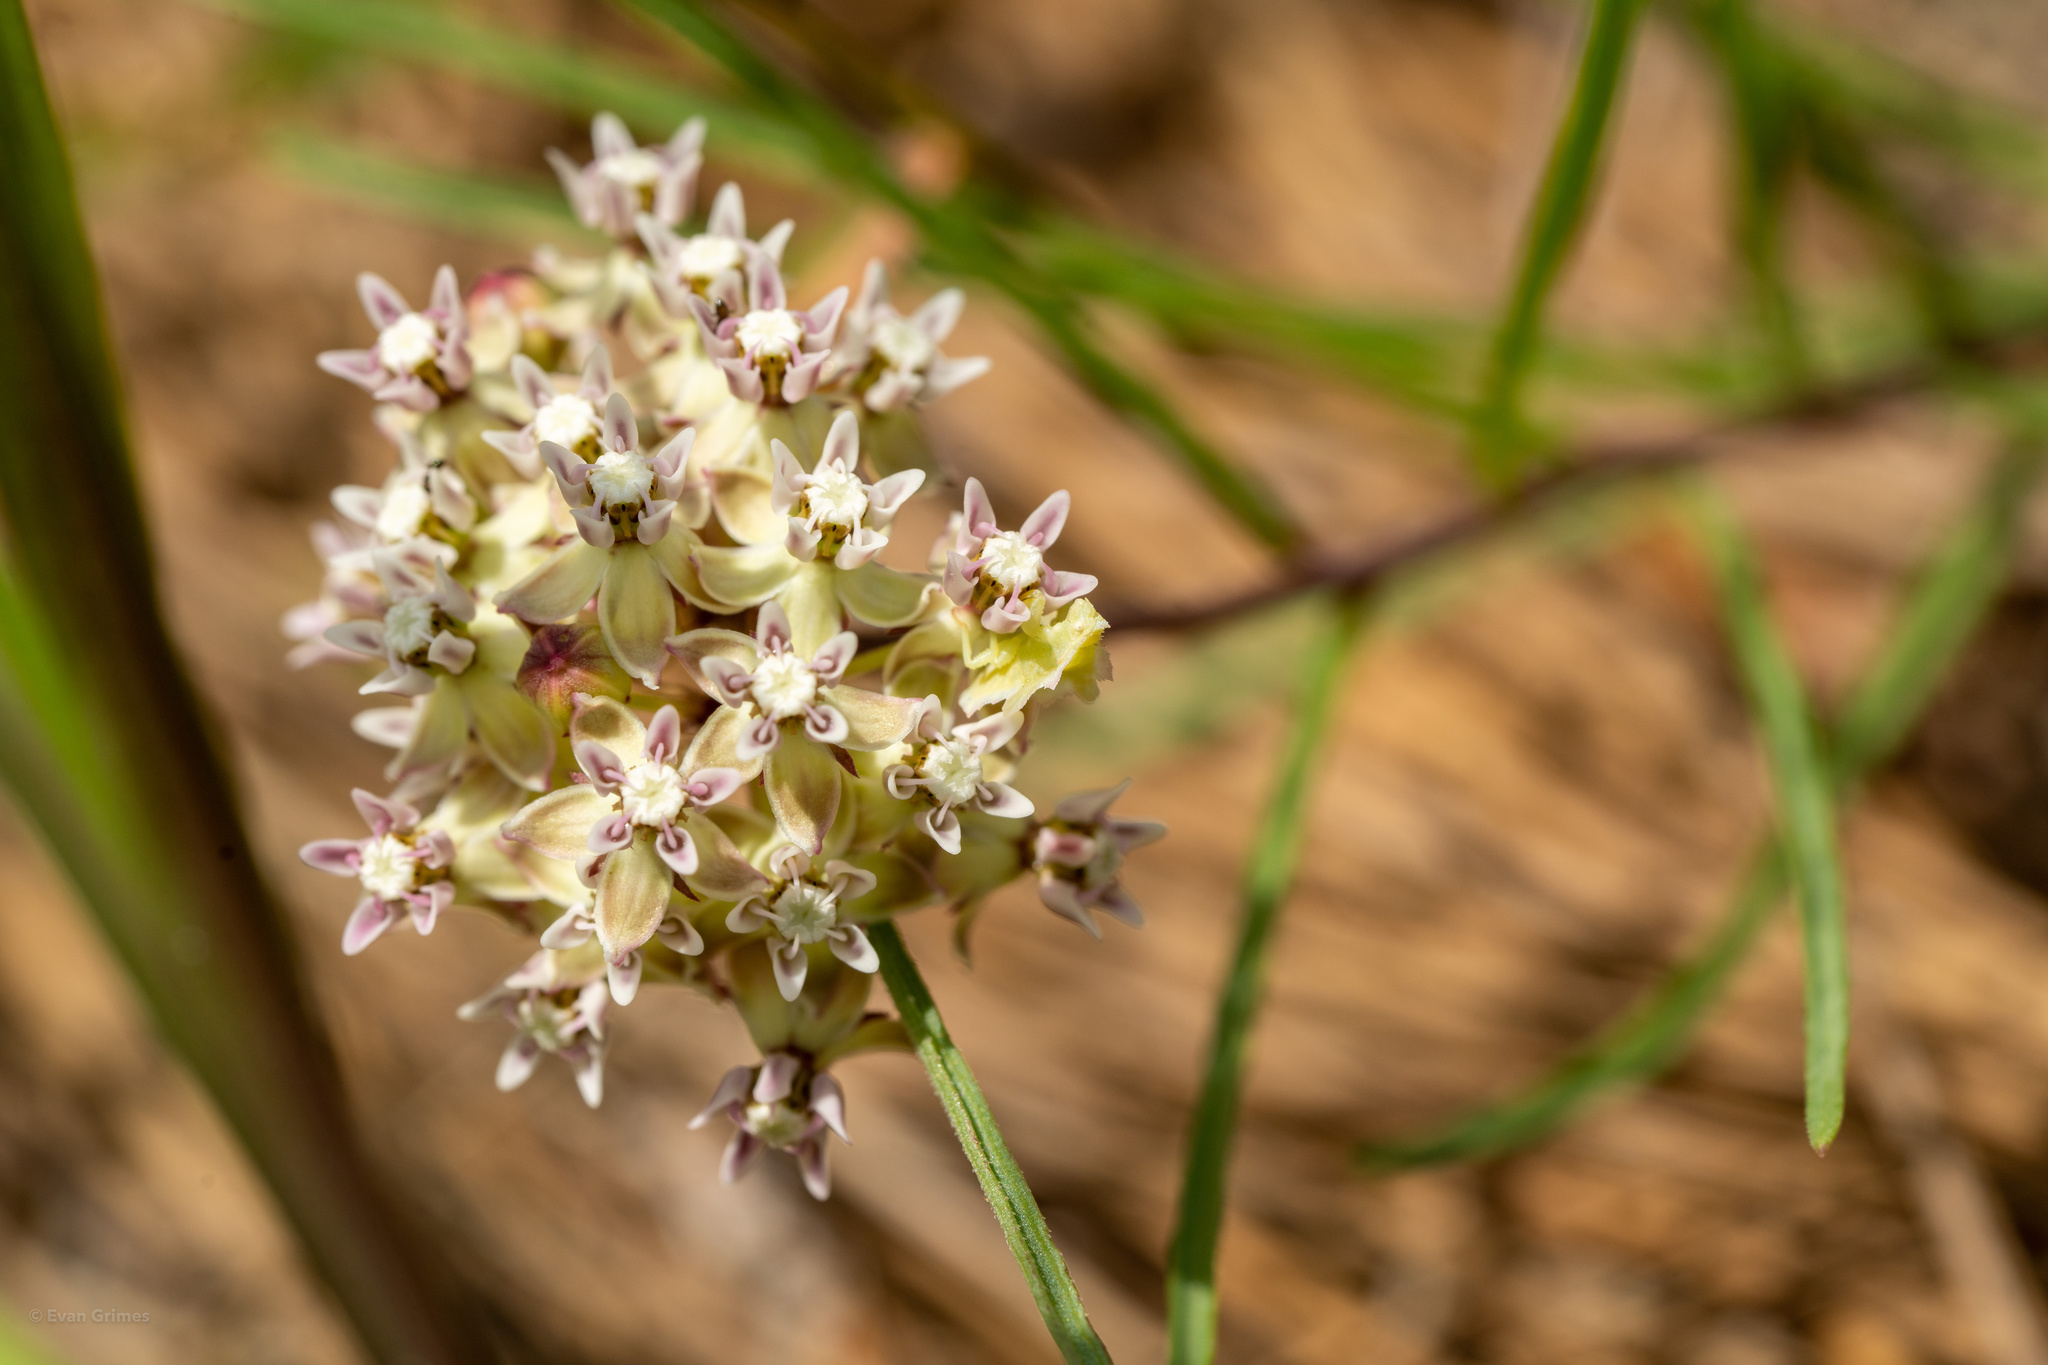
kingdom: Plantae
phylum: Tracheophyta
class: Magnoliopsida
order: Gentianales
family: Apocynaceae
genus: Asclepias
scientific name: Asclepias michauxii
